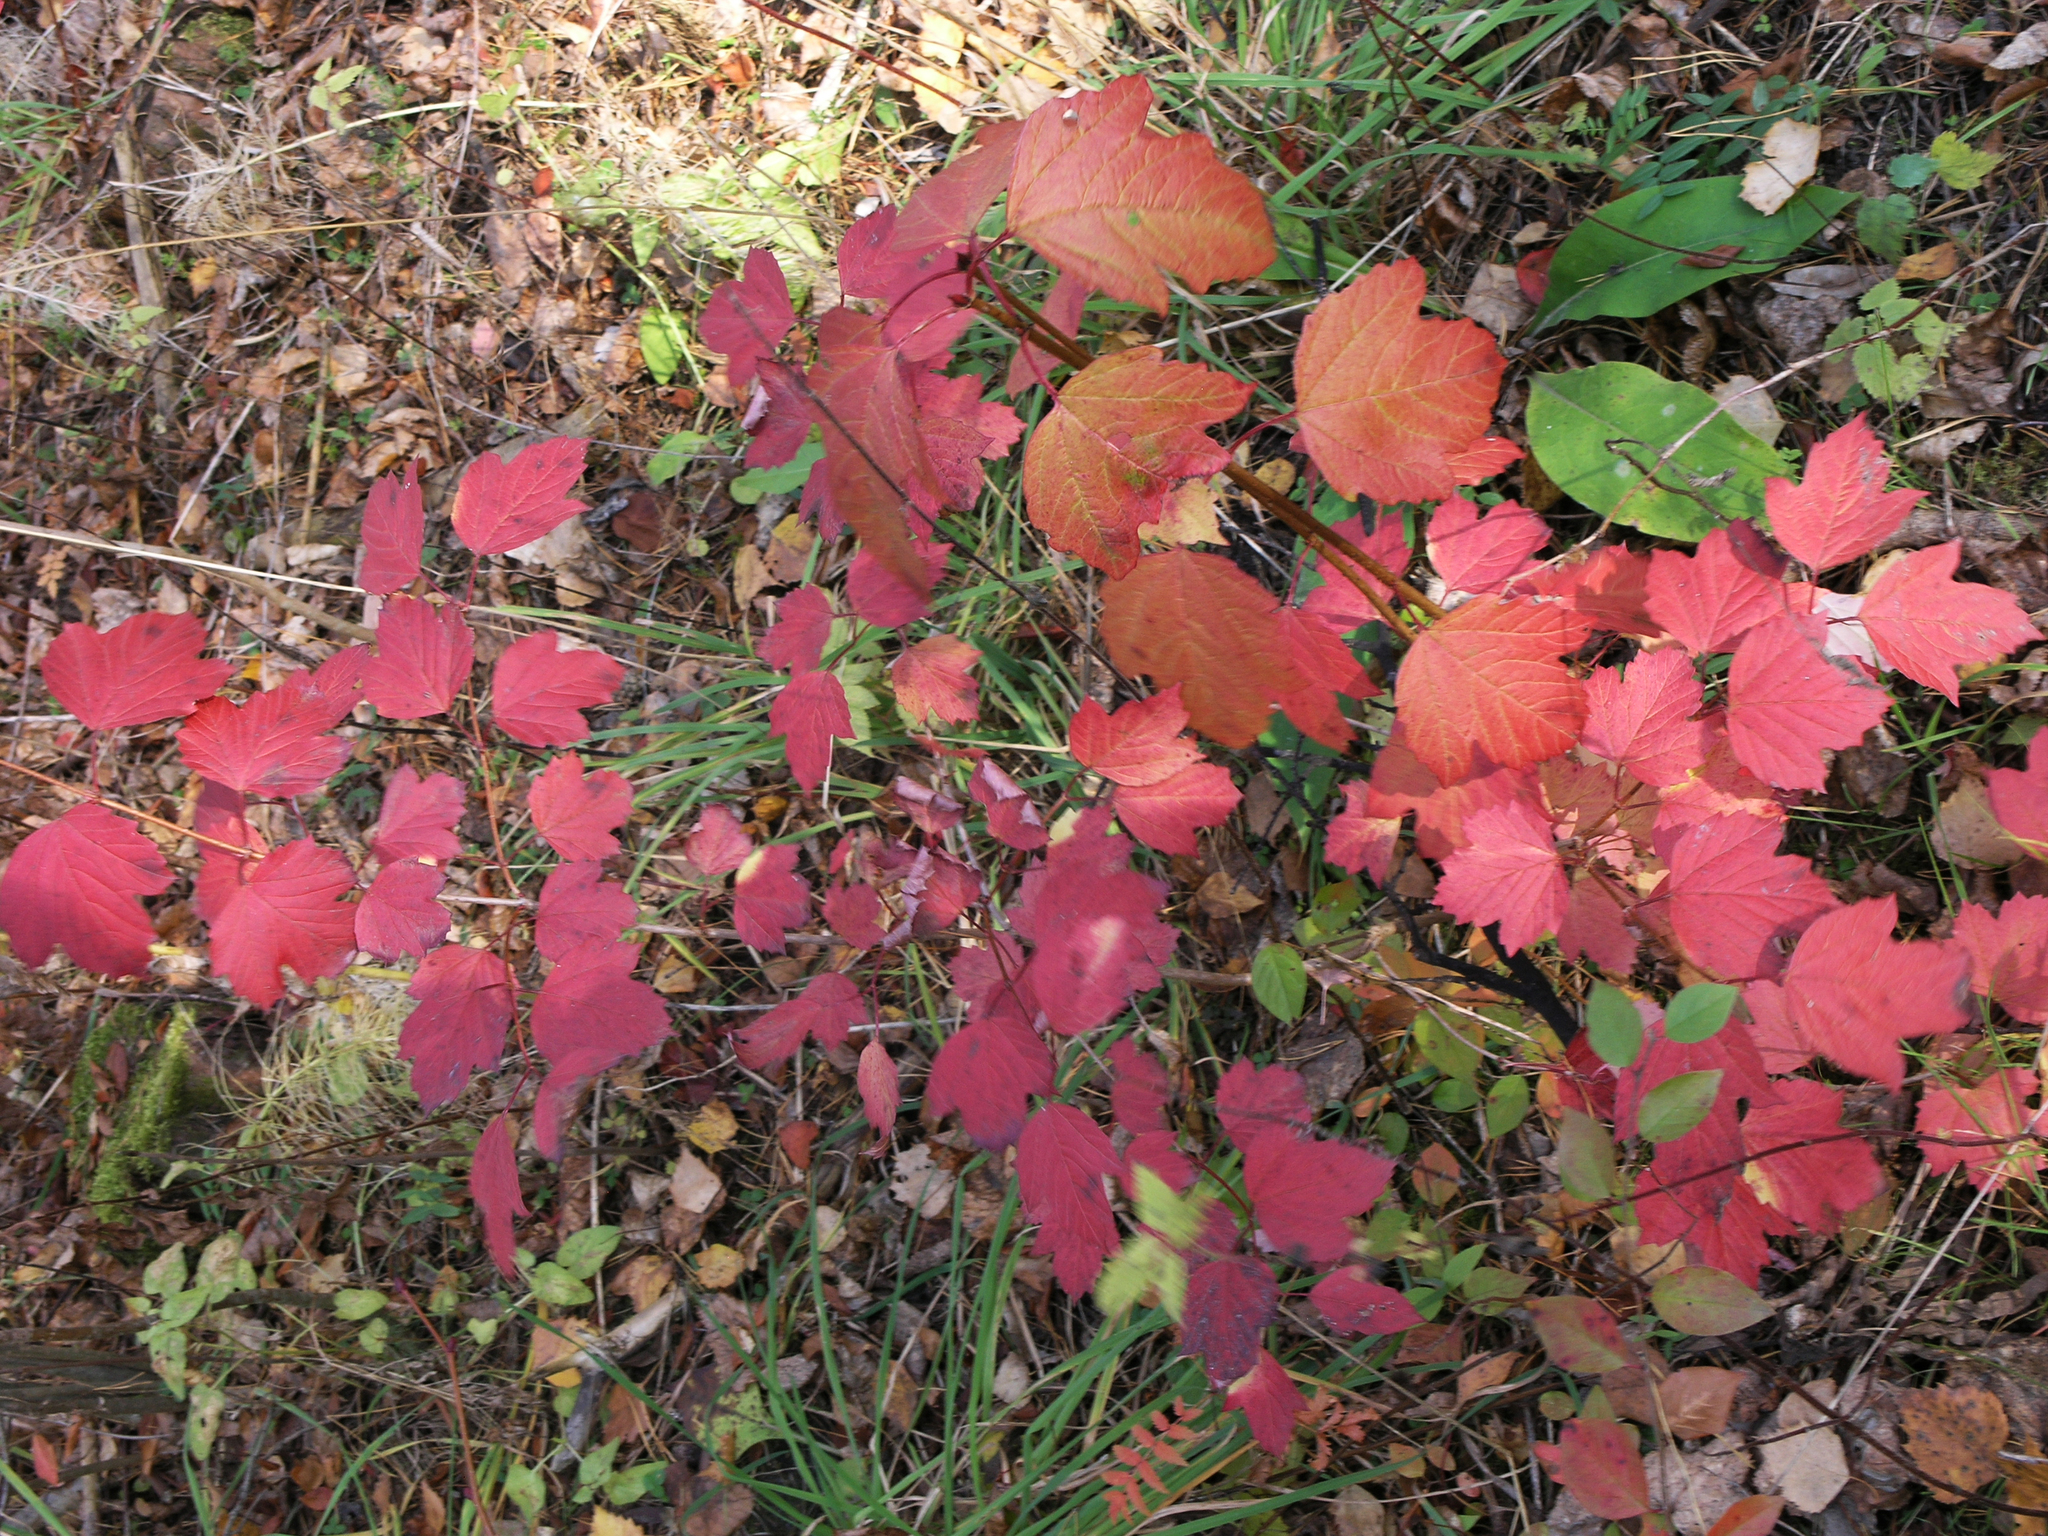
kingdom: Plantae
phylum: Tracheophyta
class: Magnoliopsida
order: Dipsacales
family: Viburnaceae
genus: Viburnum
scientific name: Viburnum opulus
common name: Guelder-rose
